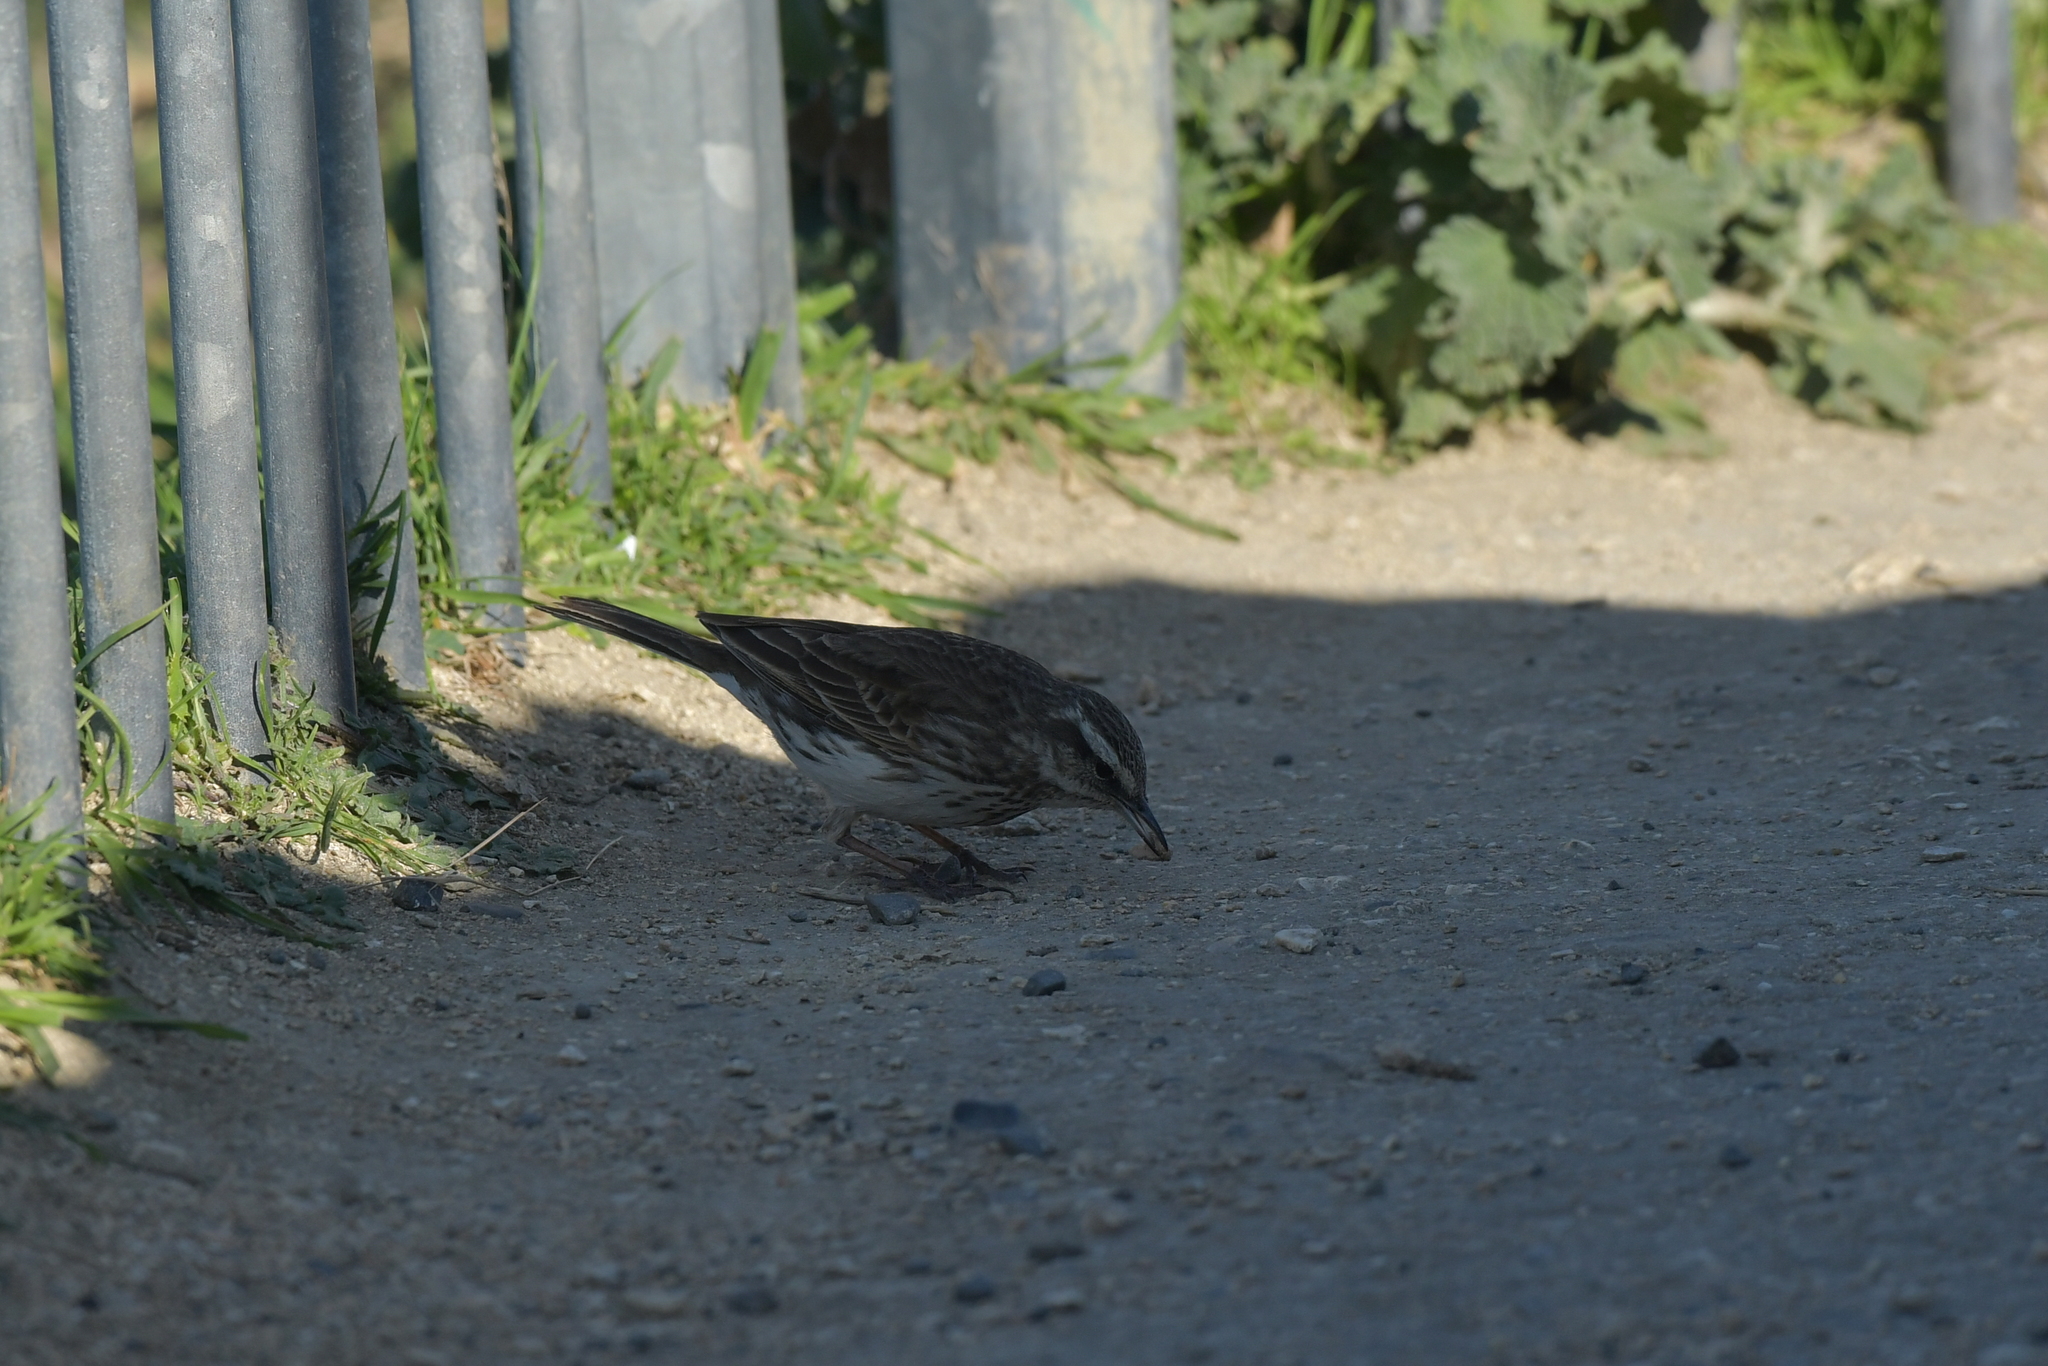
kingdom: Animalia
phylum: Chordata
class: Aves
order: Passeriformes
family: Motacillidae
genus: Anthus
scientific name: Anthus novaeseelandiae
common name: New zealand pipit
